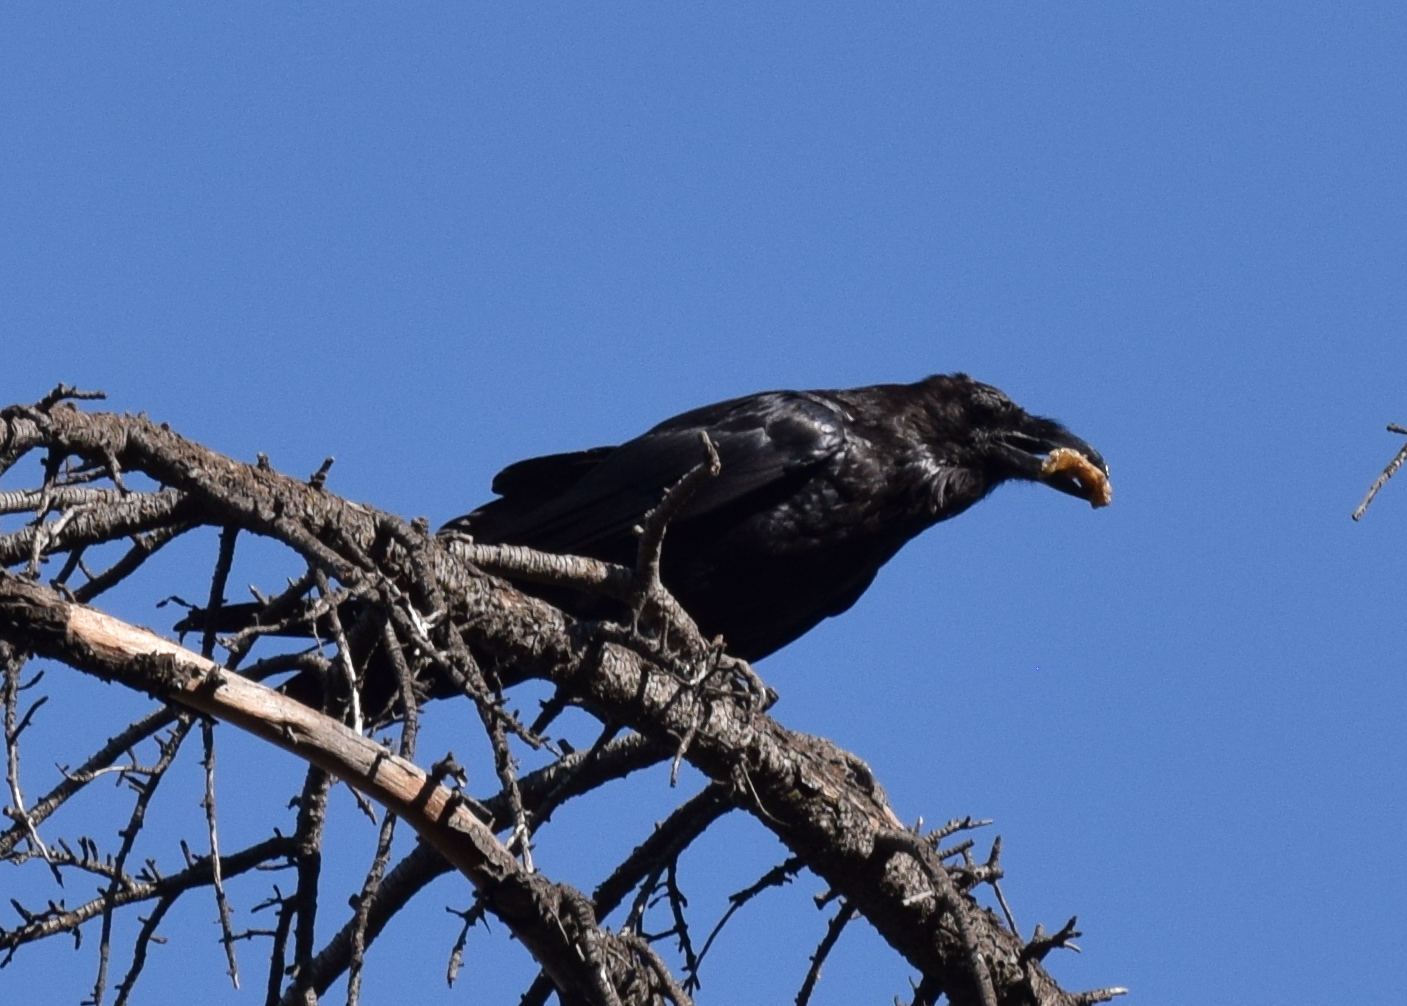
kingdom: Animalia
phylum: Chordata
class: Aves
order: Passeriformes
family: Corvidae
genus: Corvus
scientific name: Corvus corax
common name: Common raven
